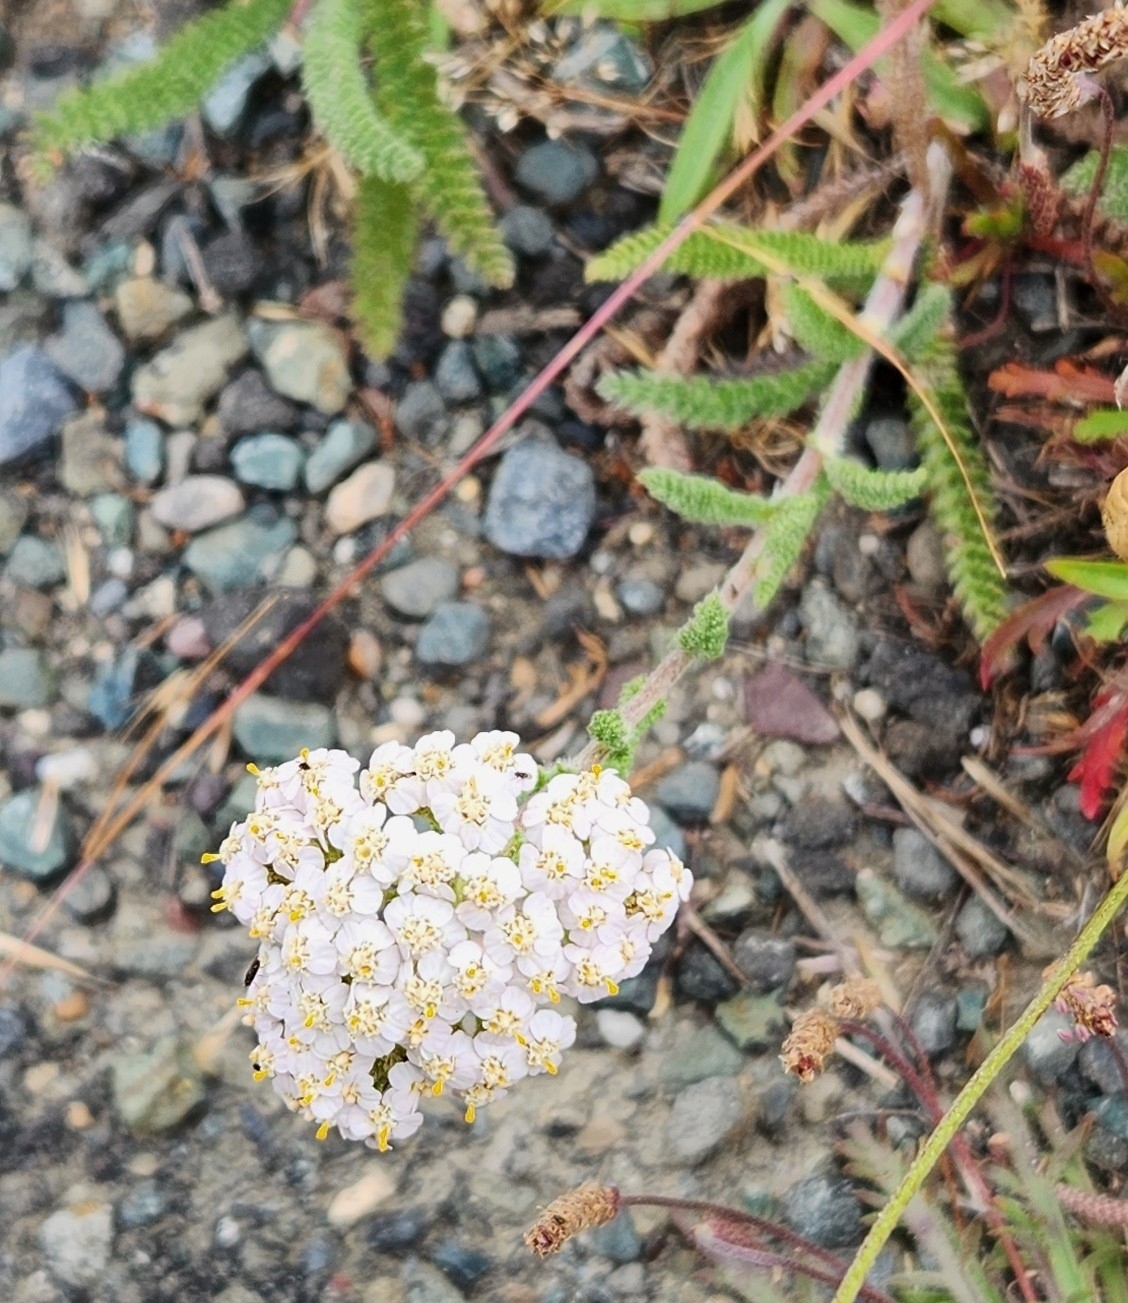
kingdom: Plantae
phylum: Tracheophyta
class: Magnoliopsida
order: Asterales
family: Asteraceae
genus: Achillea
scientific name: Achillea millefolium
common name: Yarrow
